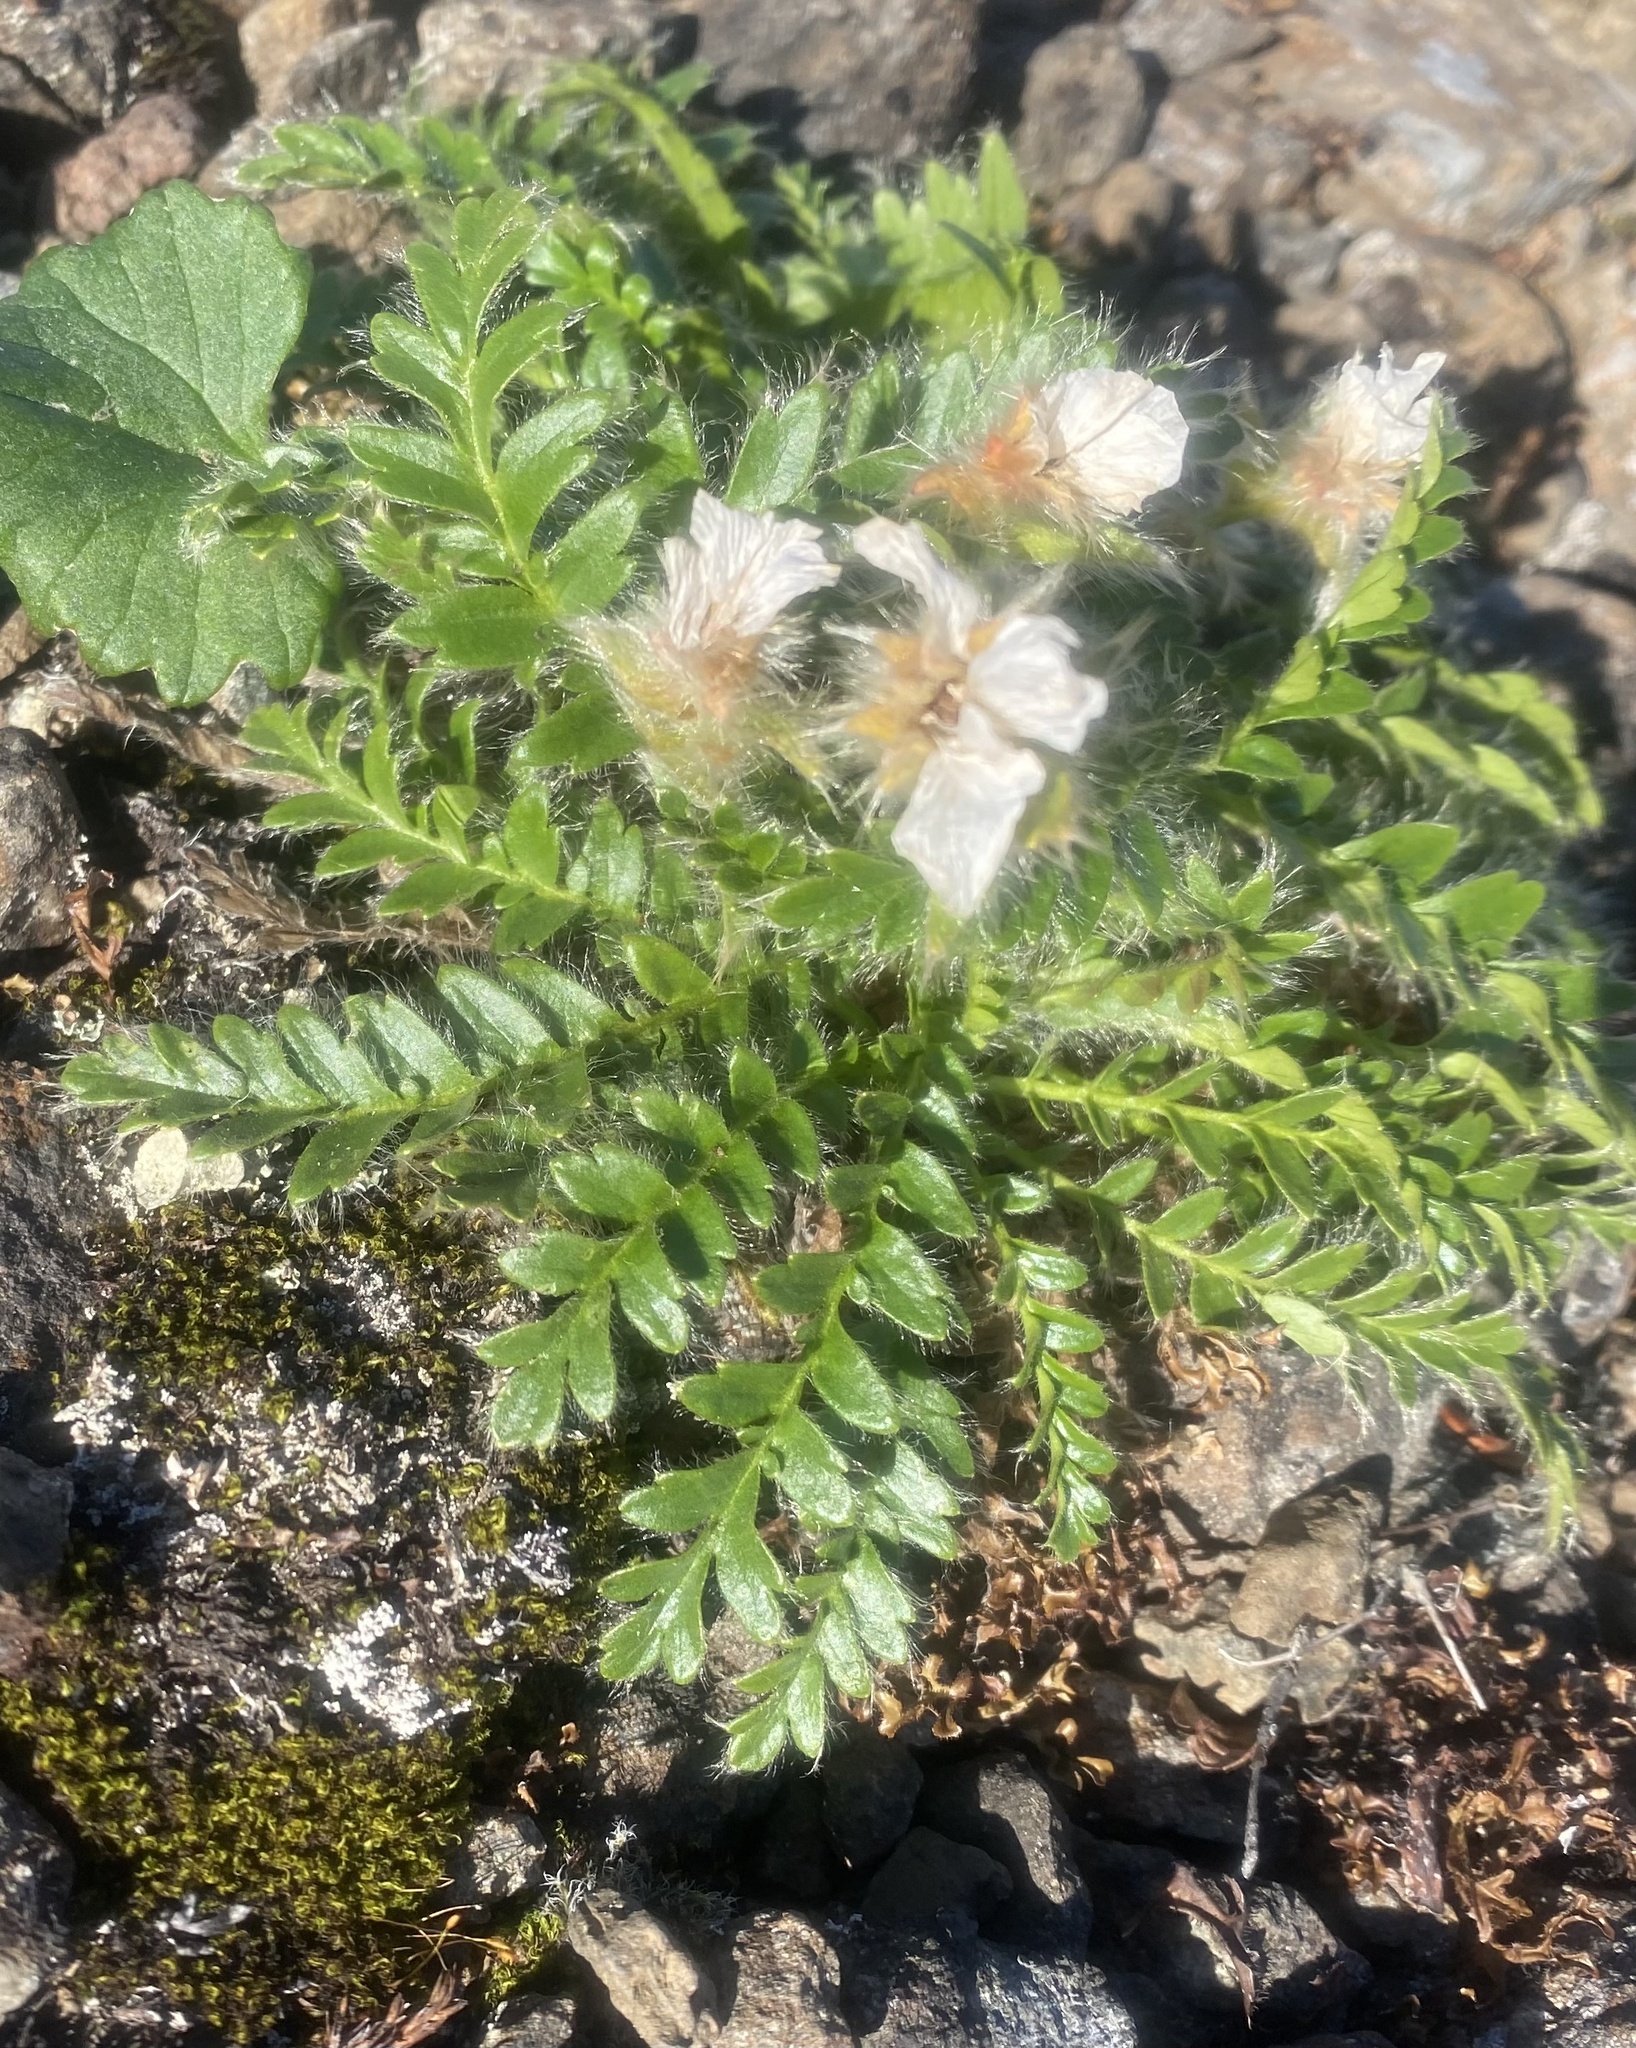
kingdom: Plantae
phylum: Tracheophyta
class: Magnoliopsida
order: Rosales
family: Rosaceae
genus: Geum
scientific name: Geum glaciale
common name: Glacier avens
